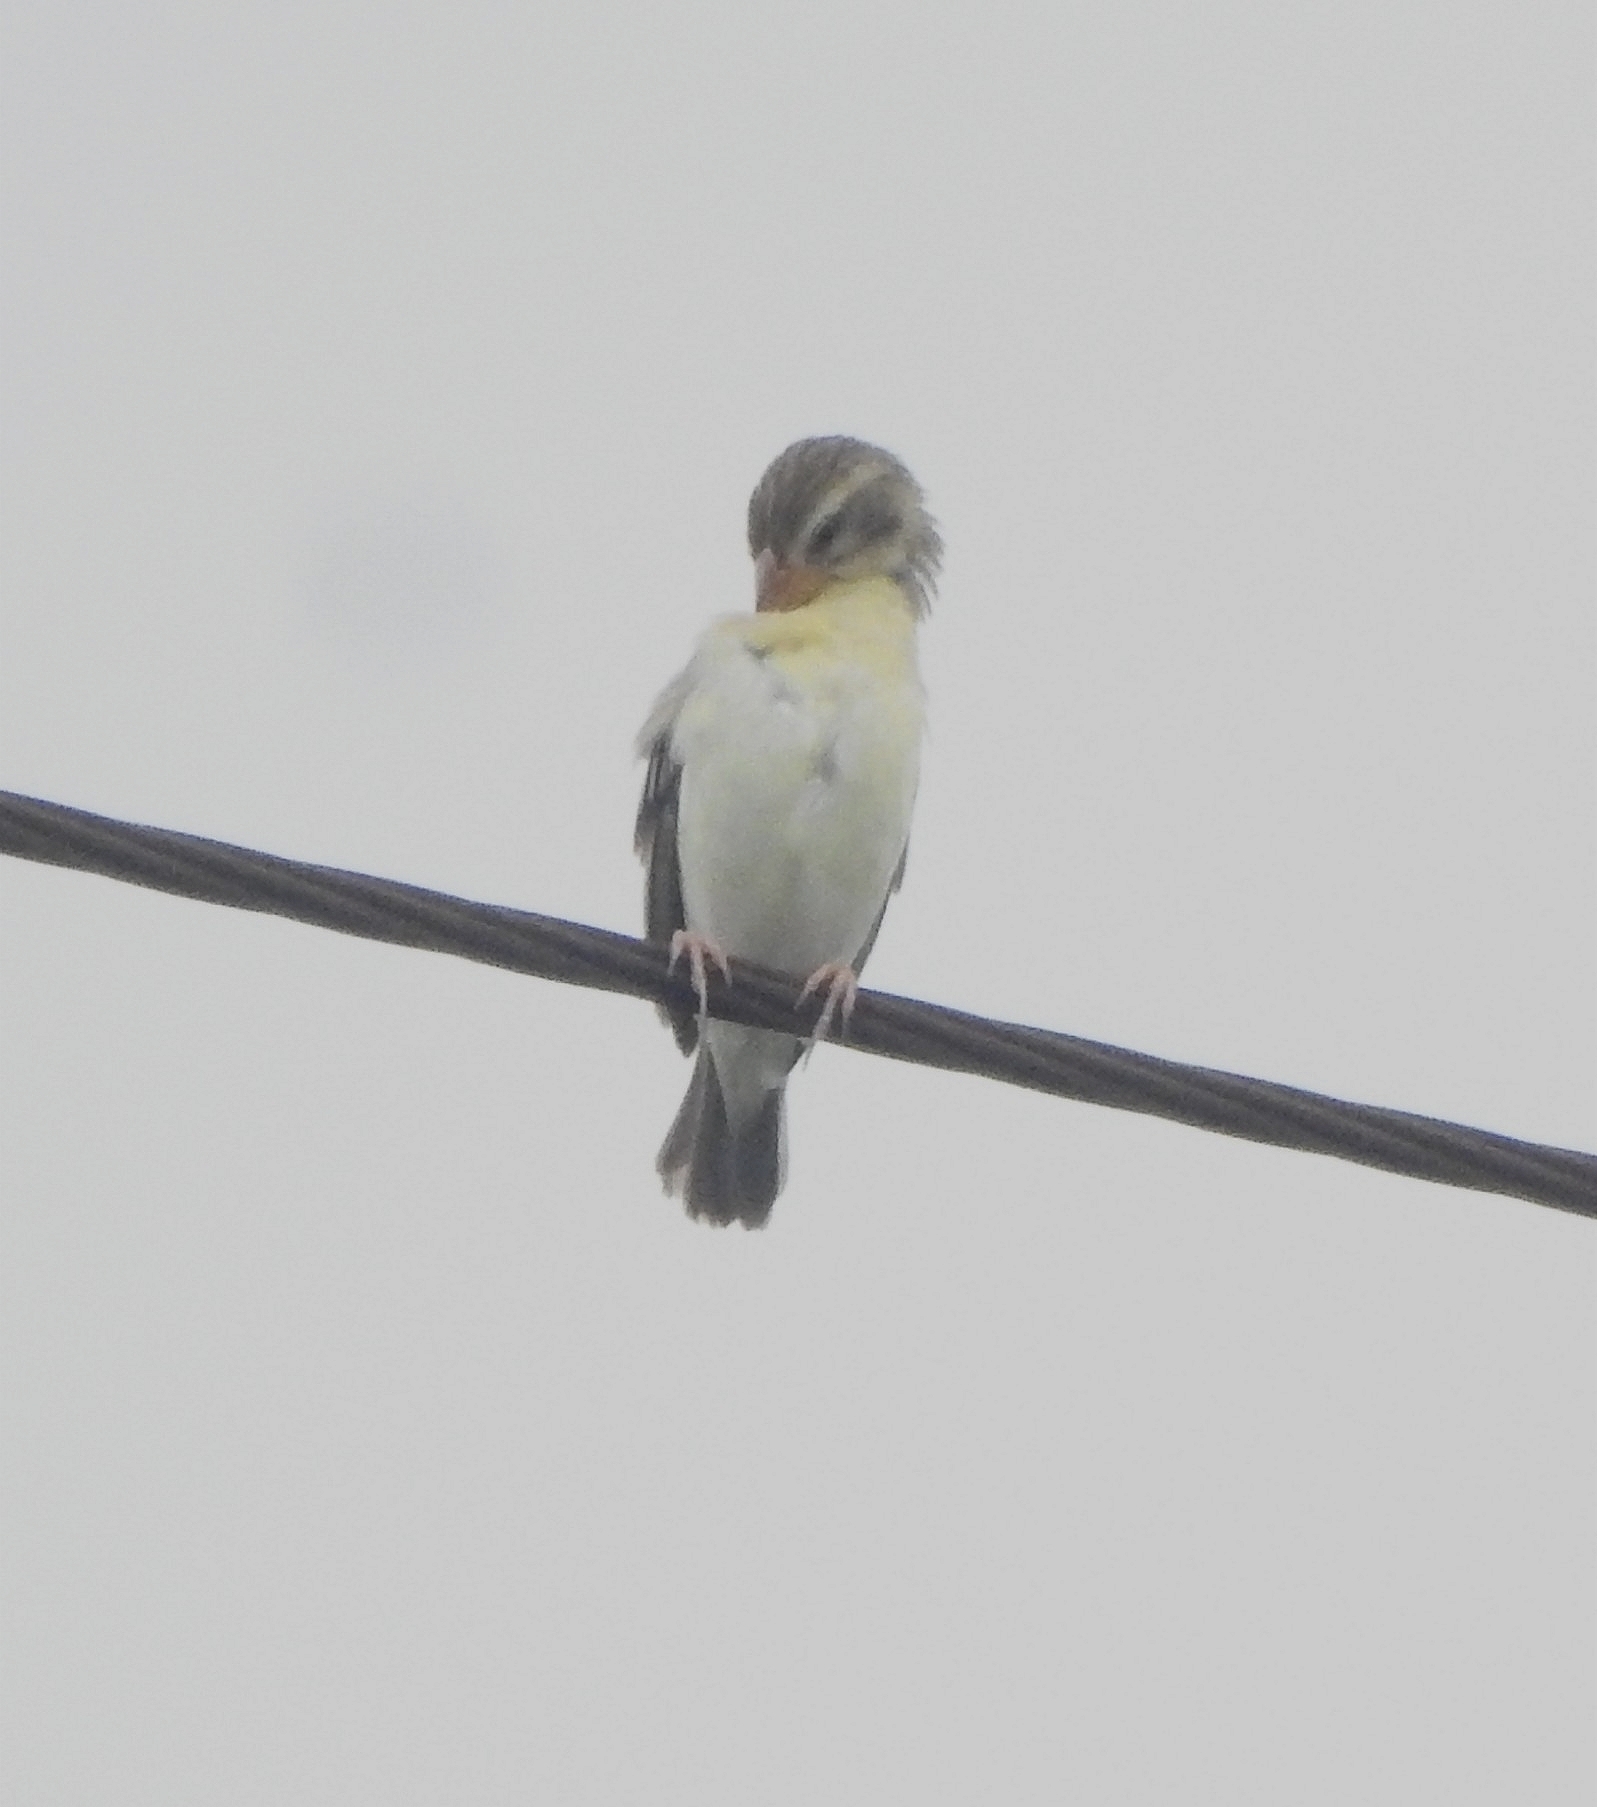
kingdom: Animalia
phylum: Chordata
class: Aves
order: Passeriformes
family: Ploceidae
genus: Ploceus
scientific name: Ploceus philippinus
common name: Baya weaver
